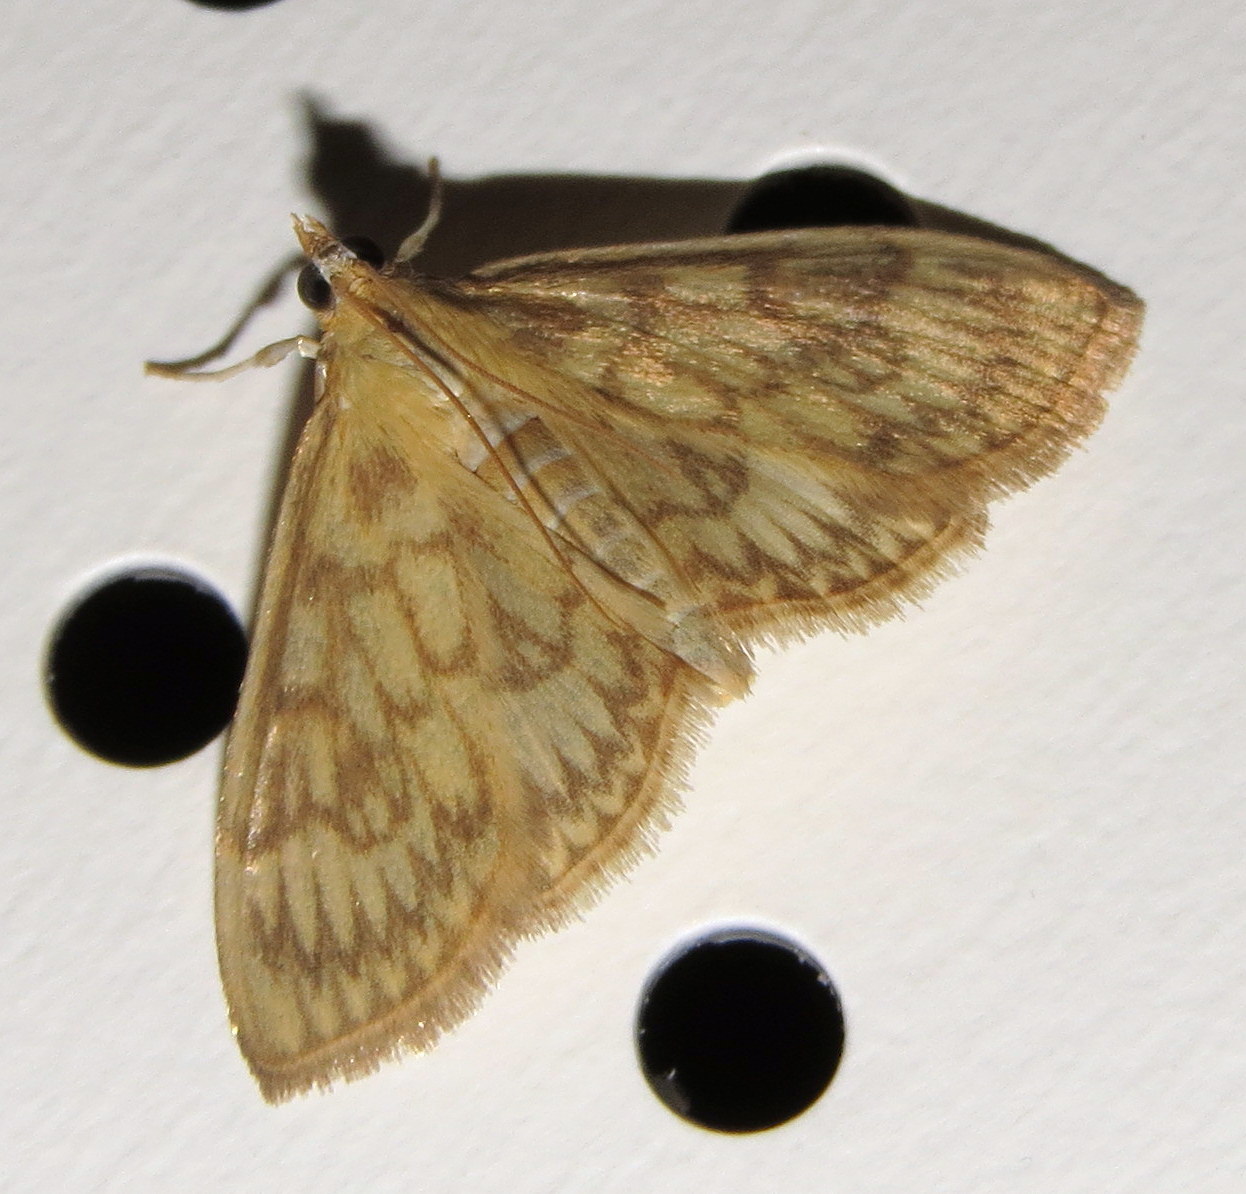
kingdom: Animalia
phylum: Arthropoda
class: Insecta
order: Lepidoptera
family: Crambidae
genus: Crocidophora
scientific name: Crocidophora serratissimalis
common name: Saw-toothed crocidophora moth
